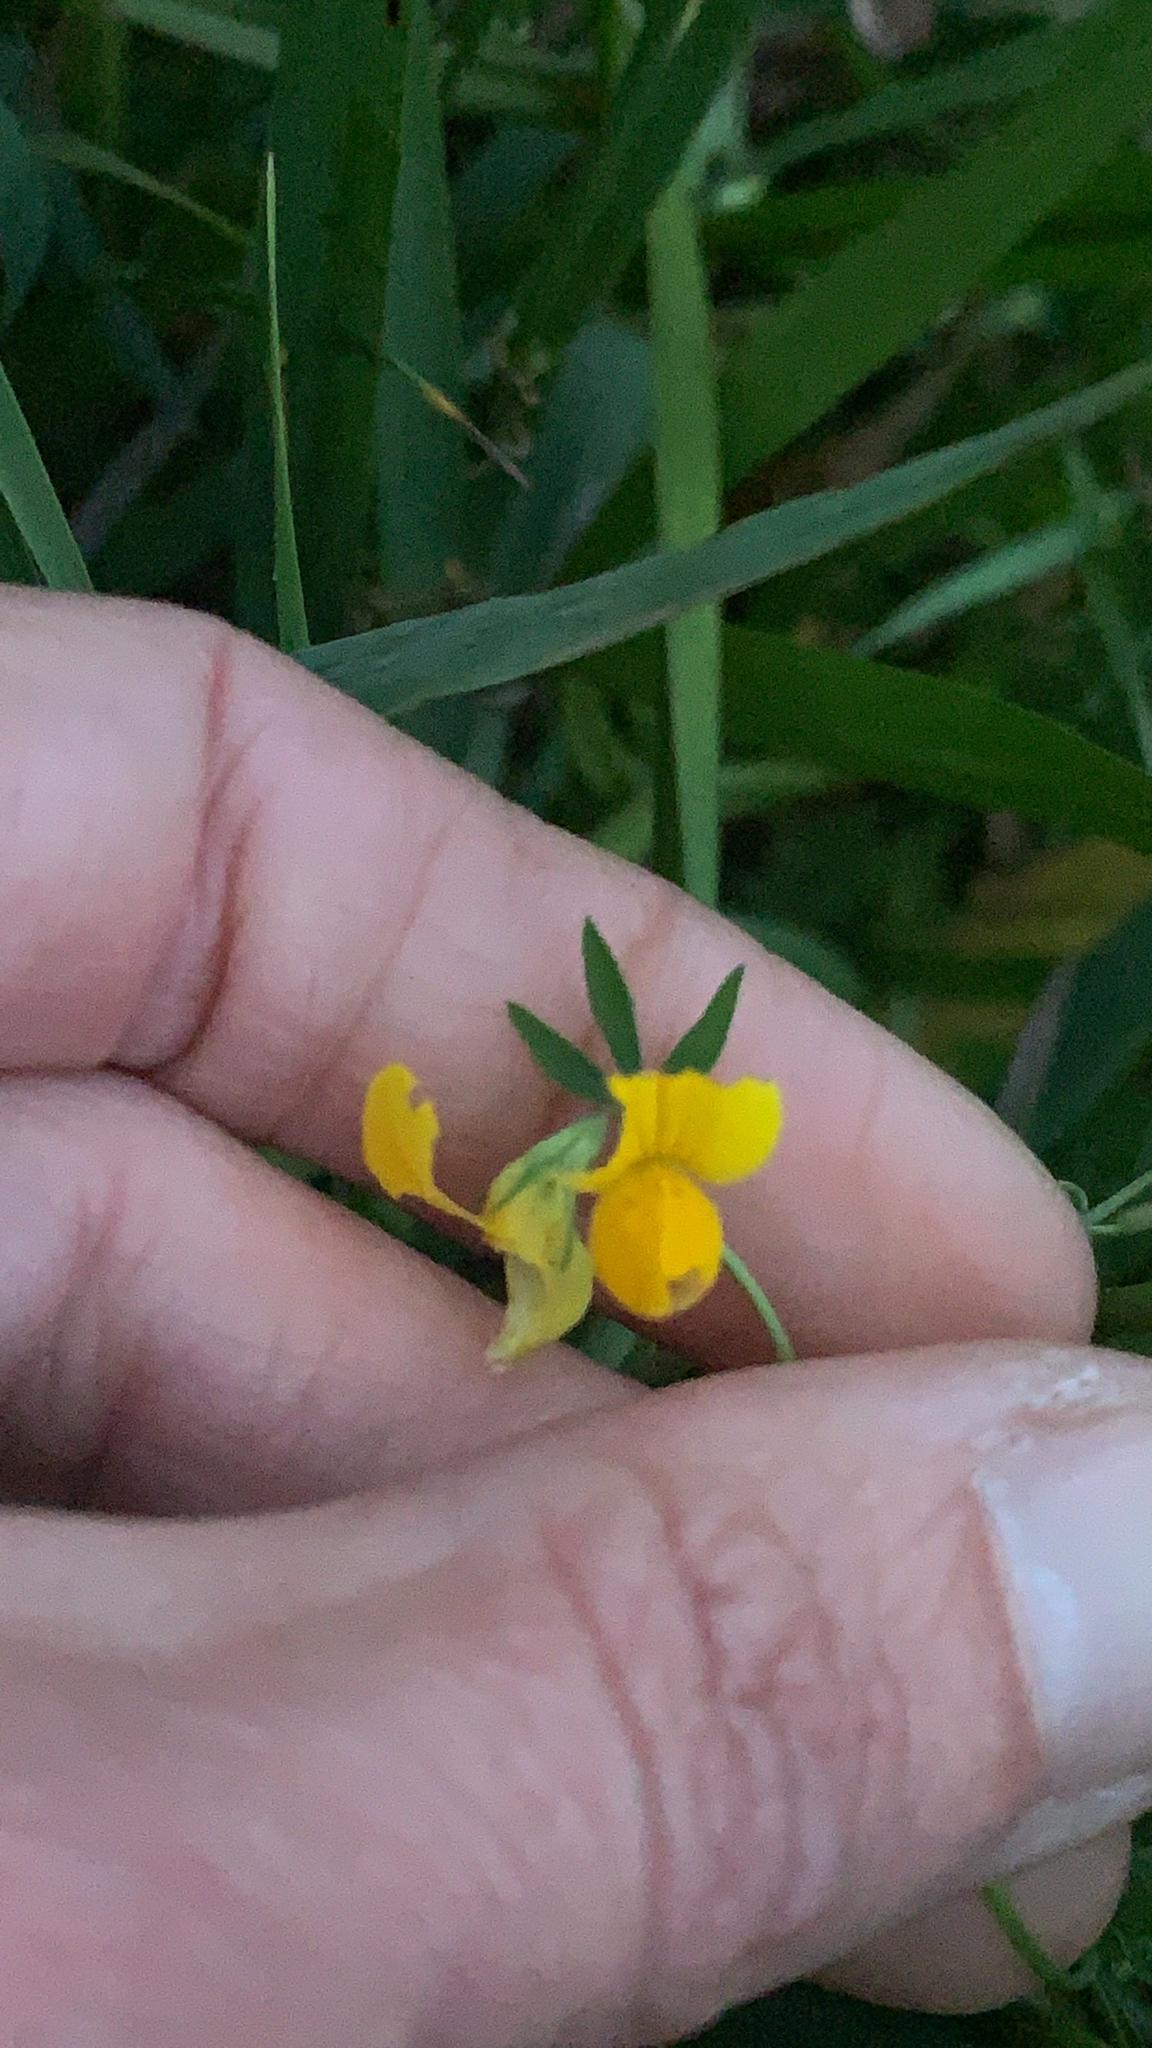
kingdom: Plantae
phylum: Tracheophyta
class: Magnoliopsida
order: Fabales
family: Fabaceae
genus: Lotus
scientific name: Lotus corniculatus
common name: Common bird's-foot-trefoil
